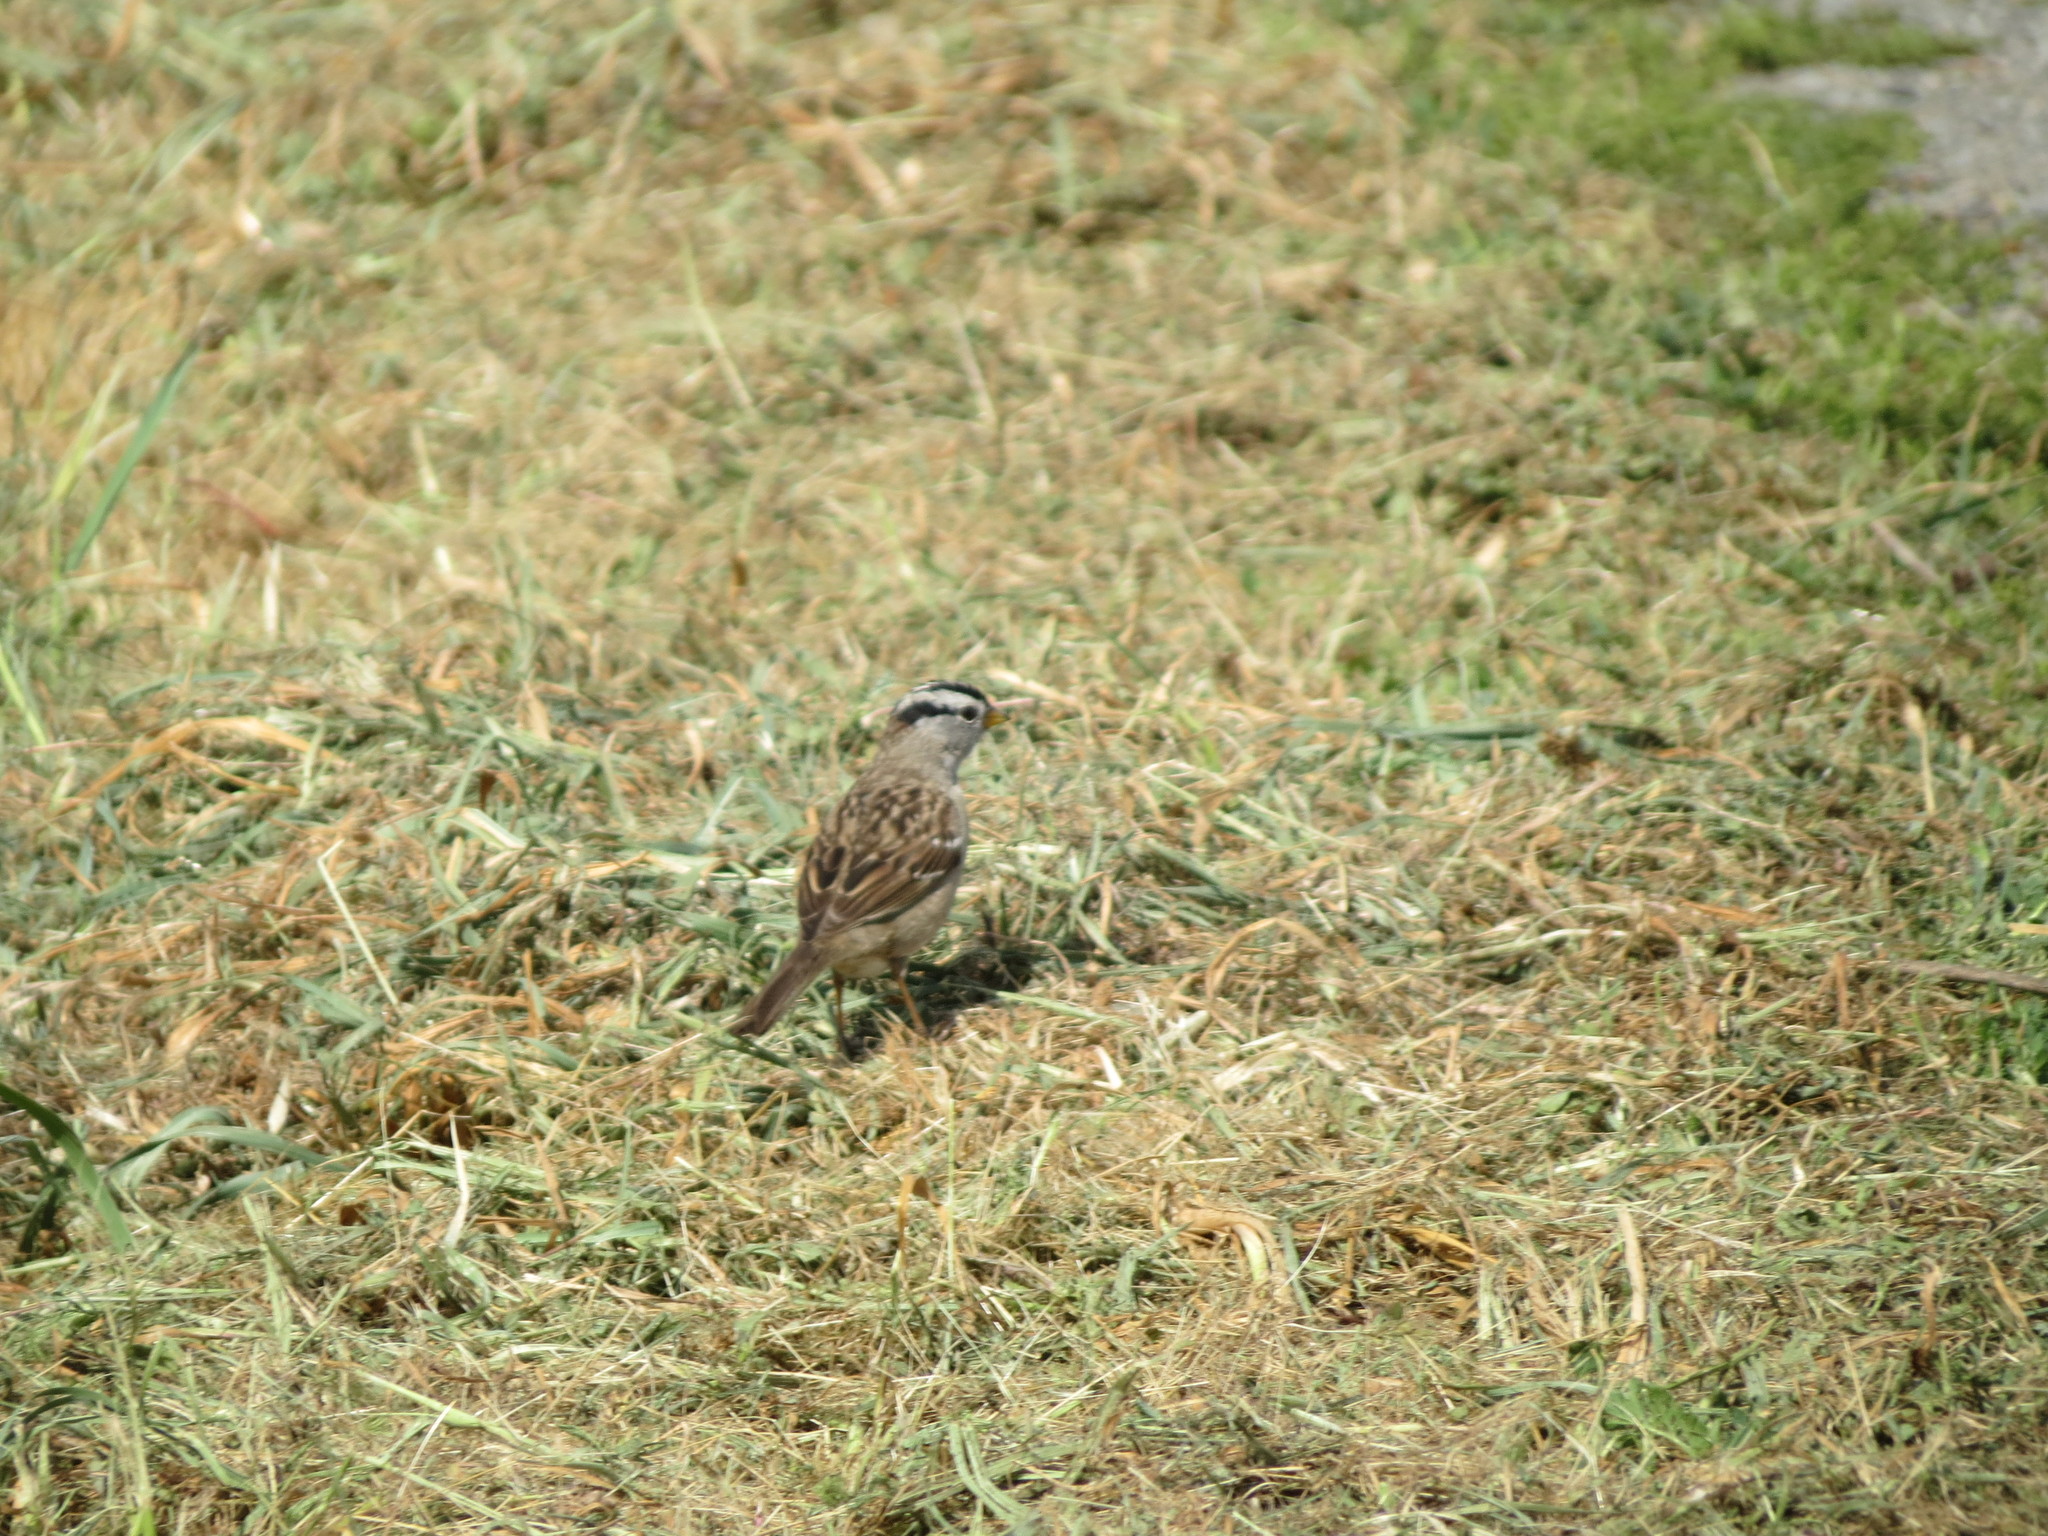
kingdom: Animalia
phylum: Chordata
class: Aves
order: Passeriformes
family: Passerellidae
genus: Zonotrichia
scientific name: Zonotrichia leucophrys
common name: White-crowned sparrow
